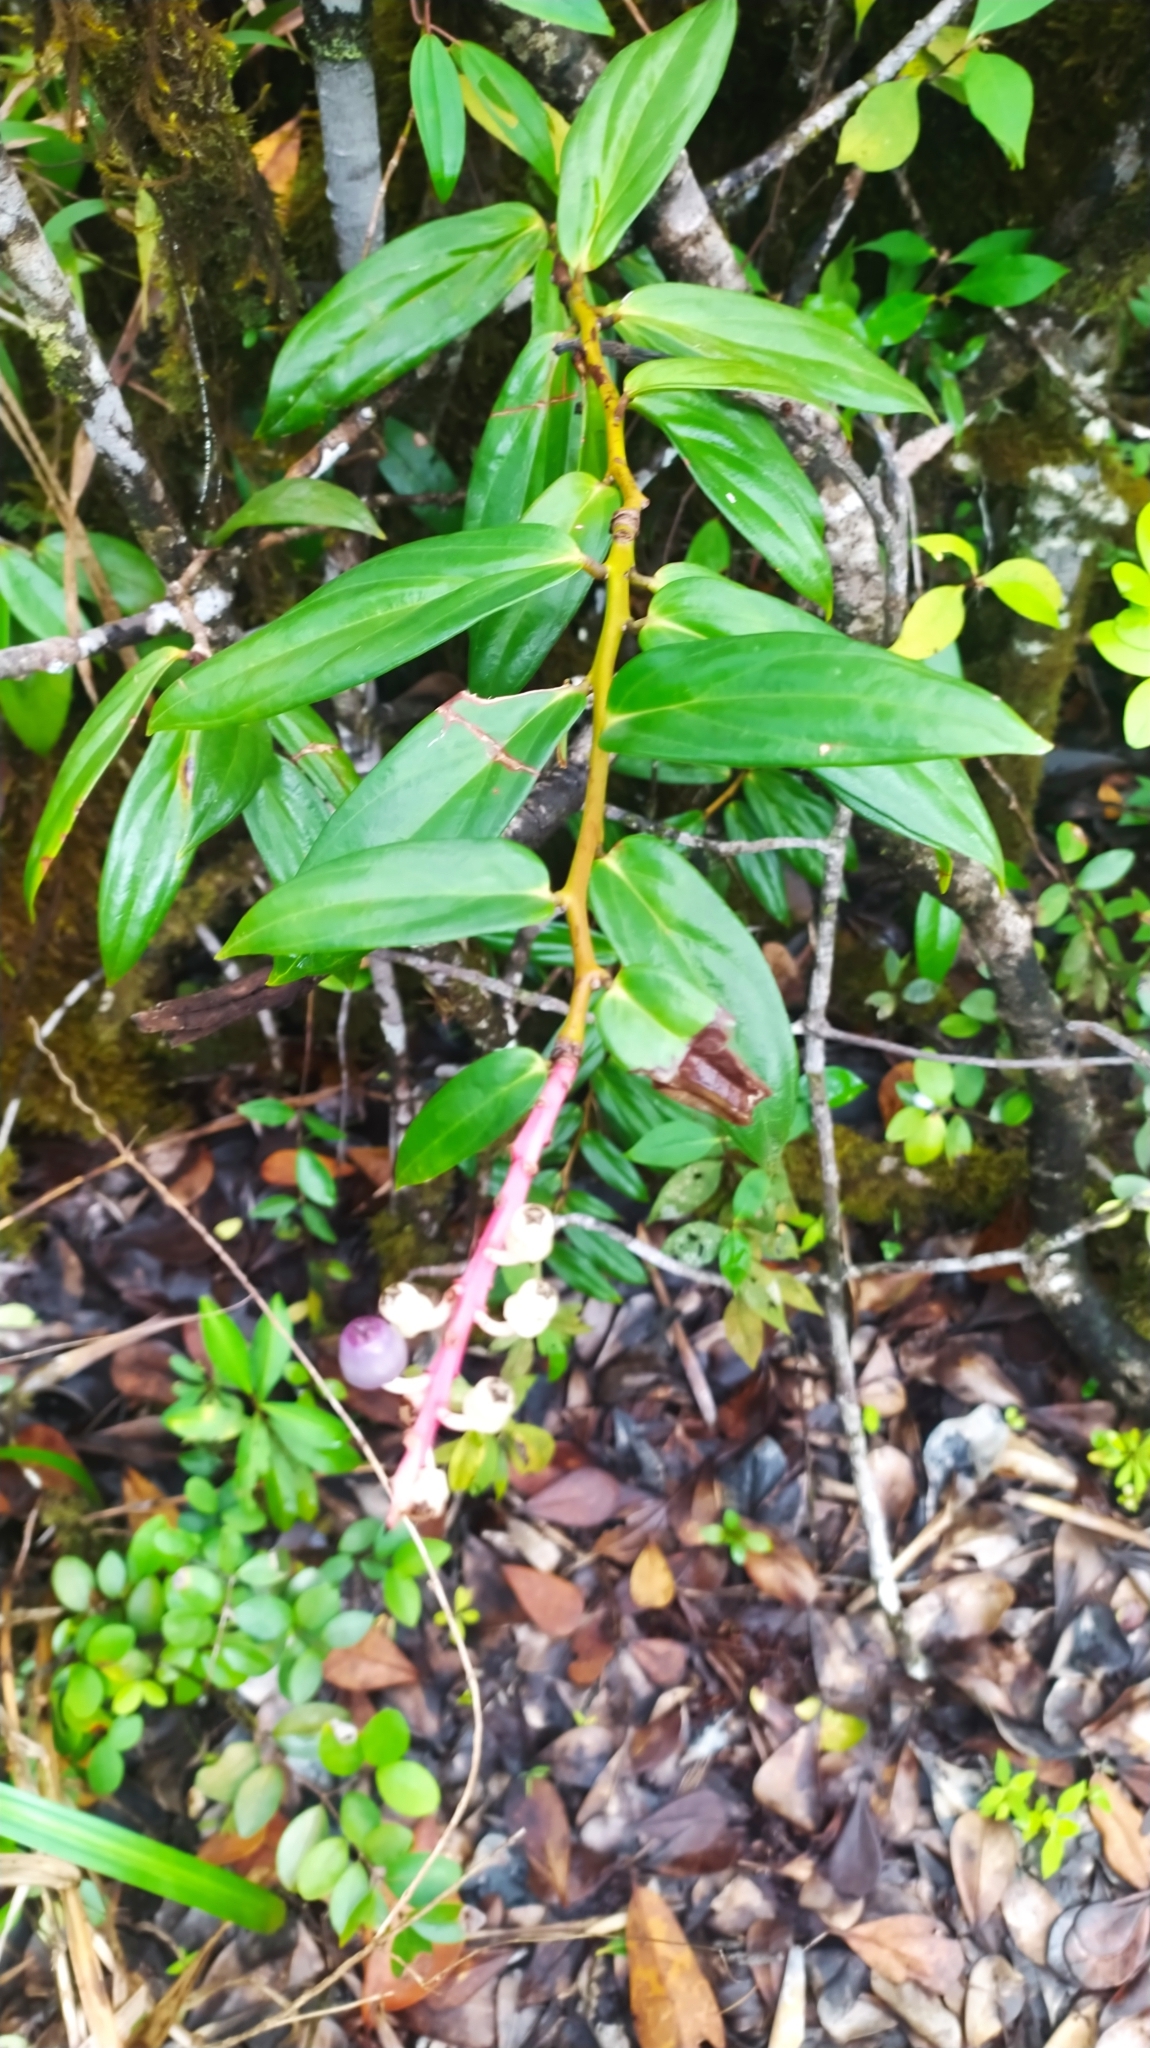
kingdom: Plantae
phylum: Tracheophyta
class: Magnoliopsida
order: Ericales
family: Ericaceae
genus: Cavendishia
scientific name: Cavendishia callista
